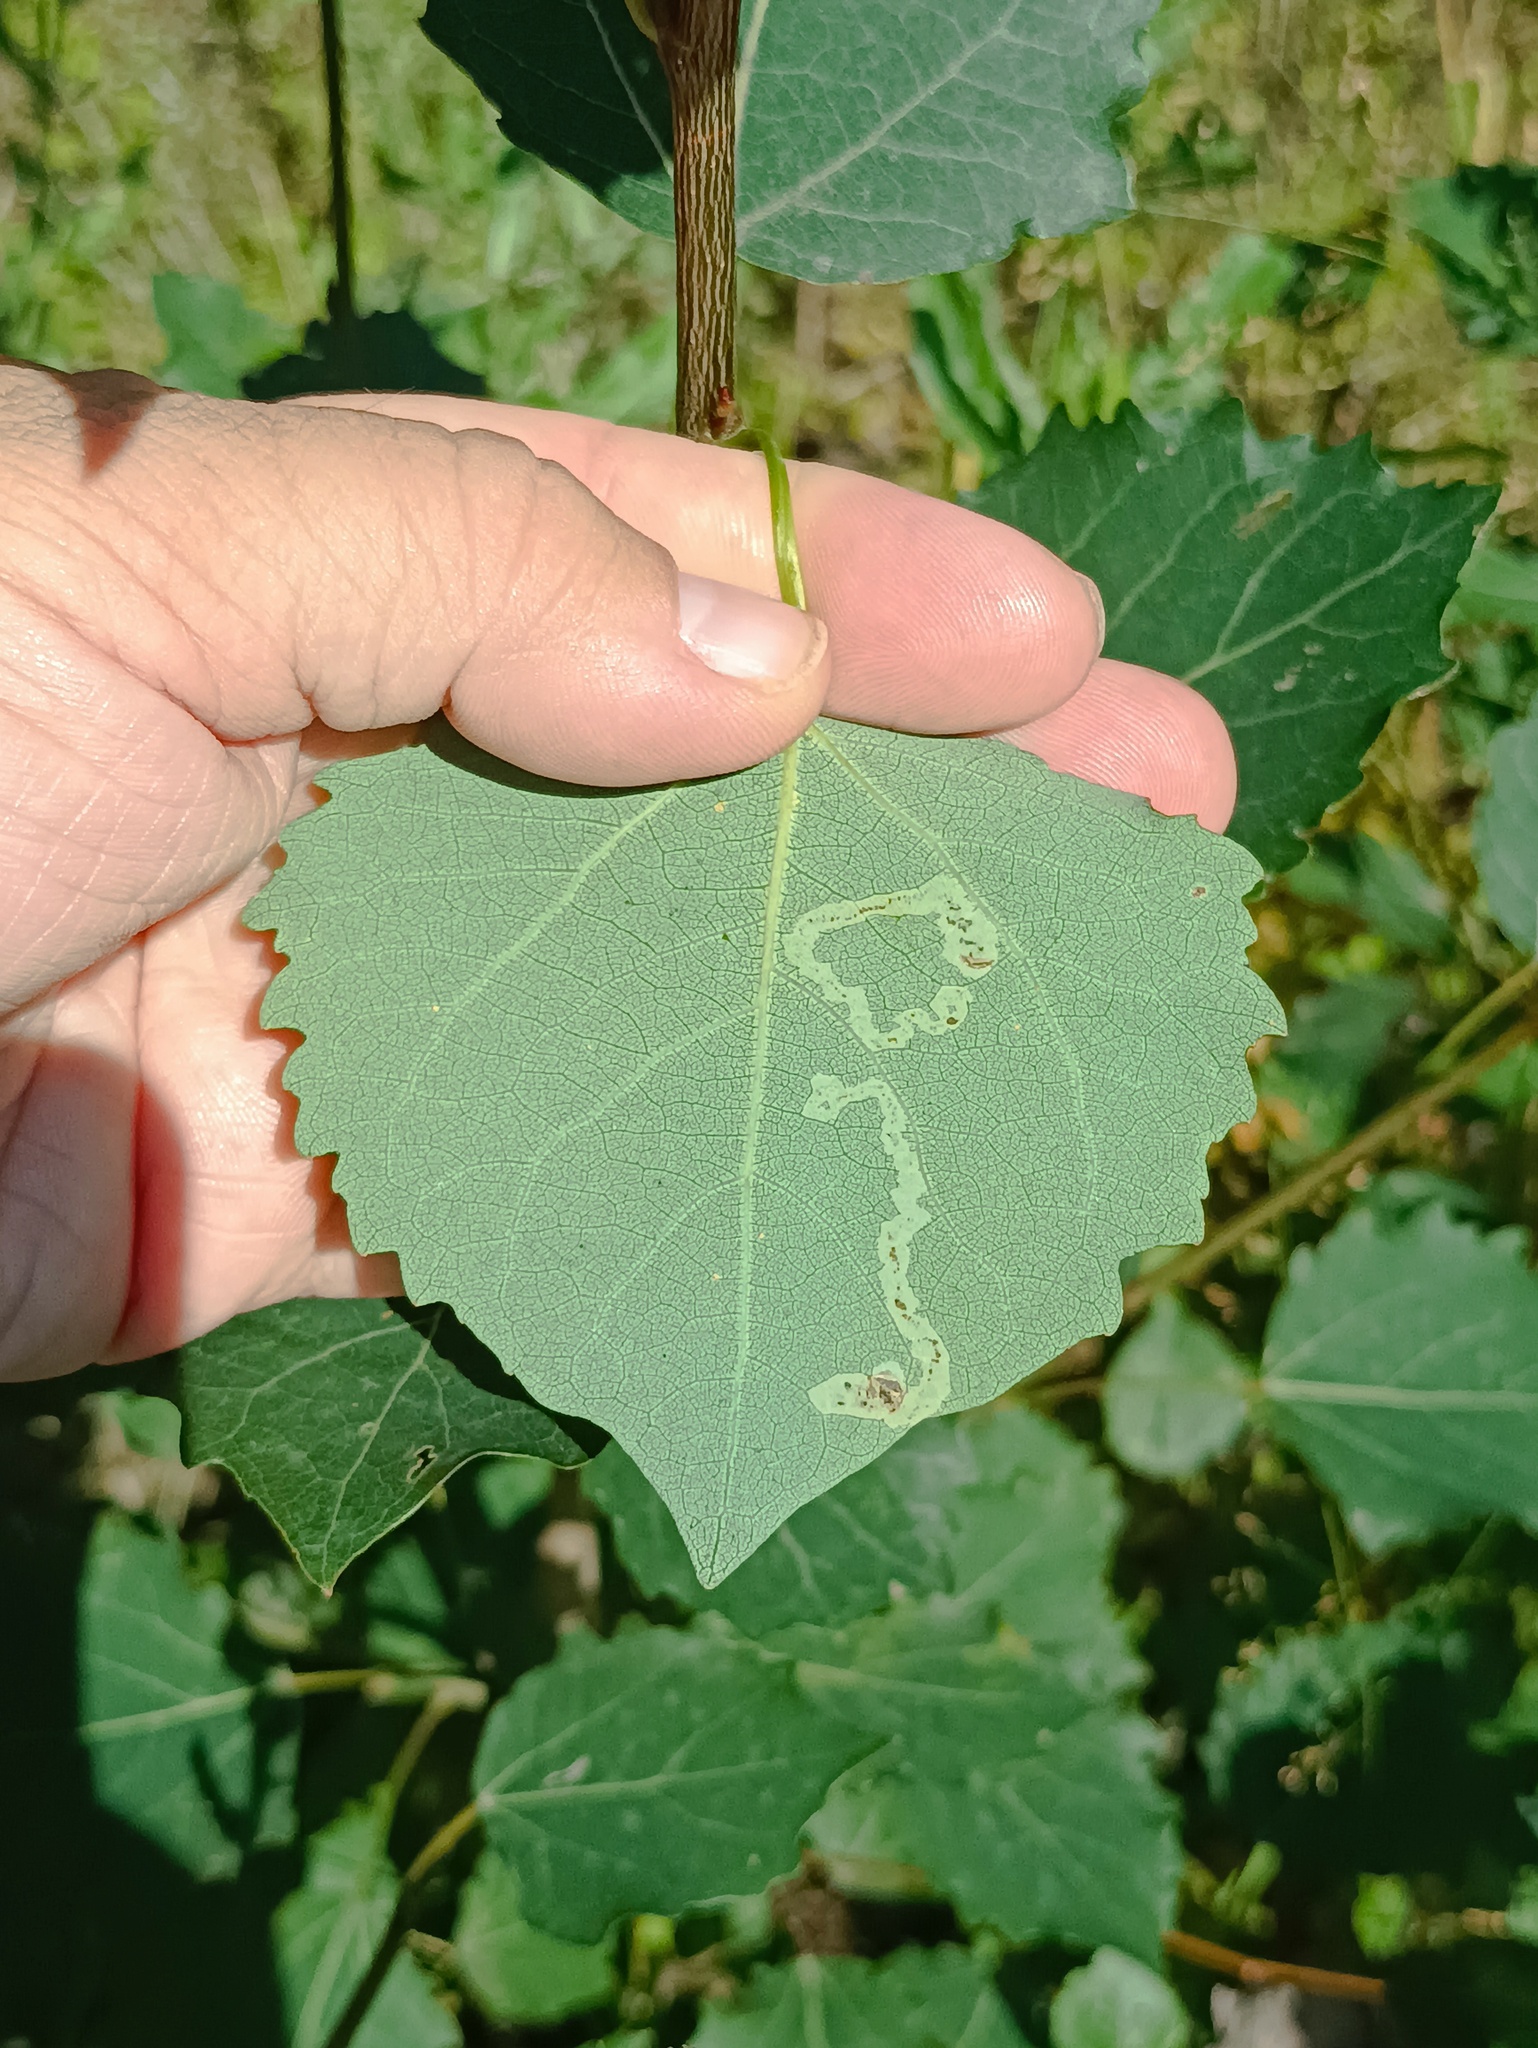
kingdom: Animalia
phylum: Arthropoda
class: Insecta
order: Lepidoptera
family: Gracillariidae
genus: Phyllocnistis
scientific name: Phyllocnistis labyrinthella
